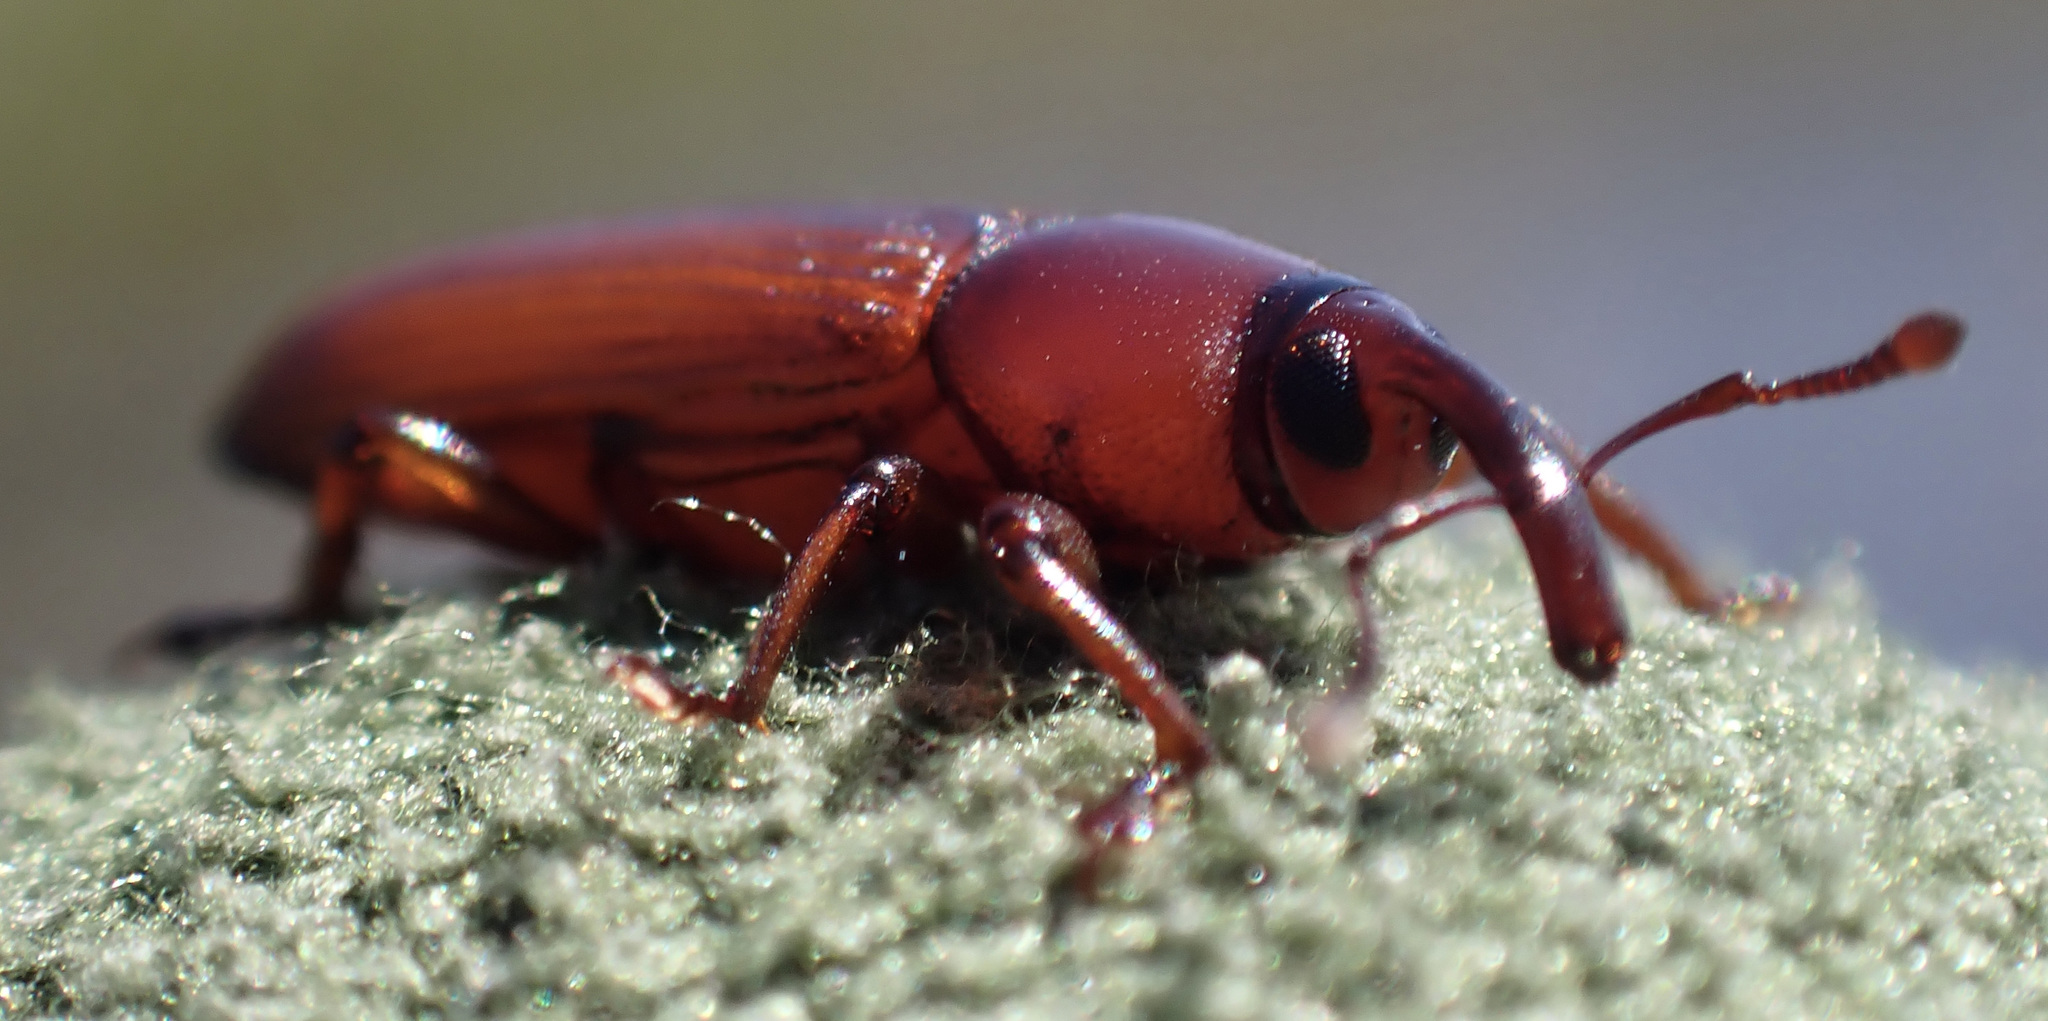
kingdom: Animalia
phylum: Arthropoda
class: Insecta
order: Coleoptera
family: Curculionidae
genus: Aorus
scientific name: Aorus tenuipes
